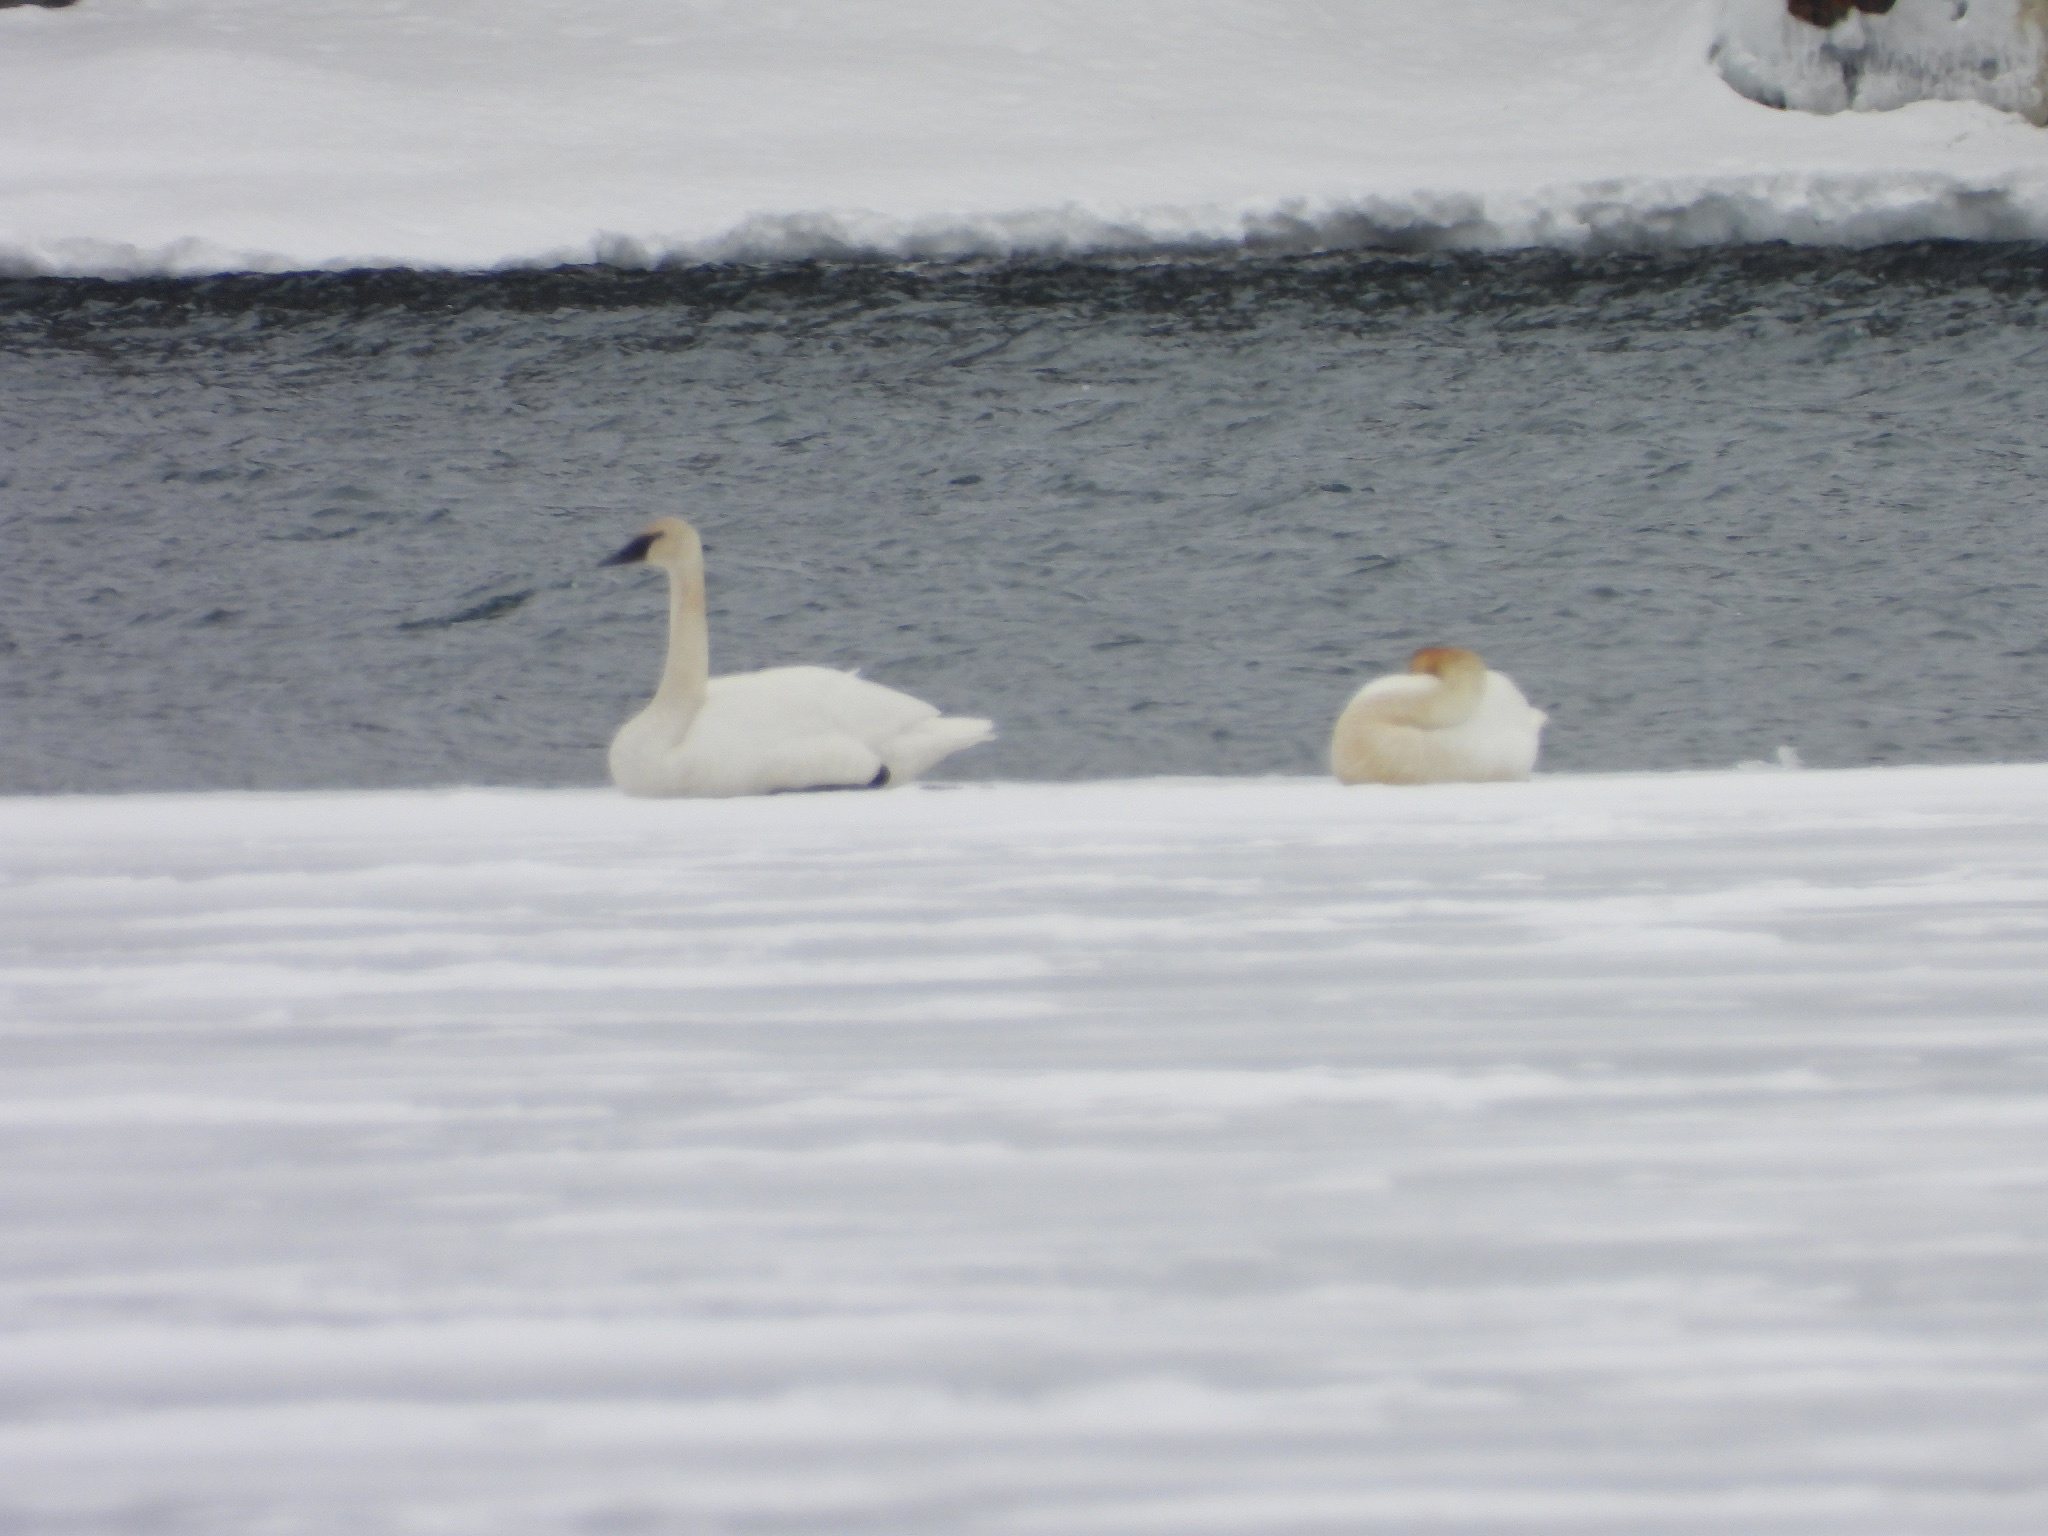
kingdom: Animalia
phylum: Chordata
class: Aves
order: Anseriformes
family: Anatidae
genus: Cygnus
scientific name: Cygnus buccinator
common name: Trumpeter swan
